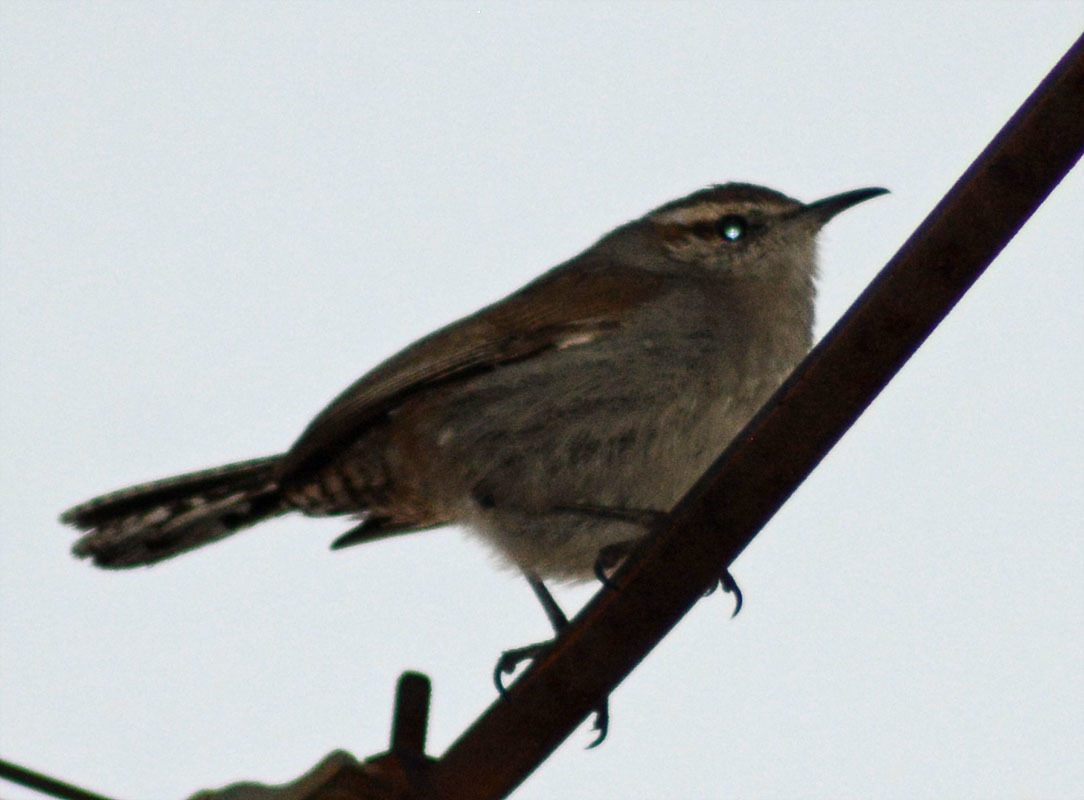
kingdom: Animalia
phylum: Chordata
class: Aves
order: Passeriformes
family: Troglodytidae
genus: Thryomanes
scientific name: Thryomanes bewickii
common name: Bewick's wren
